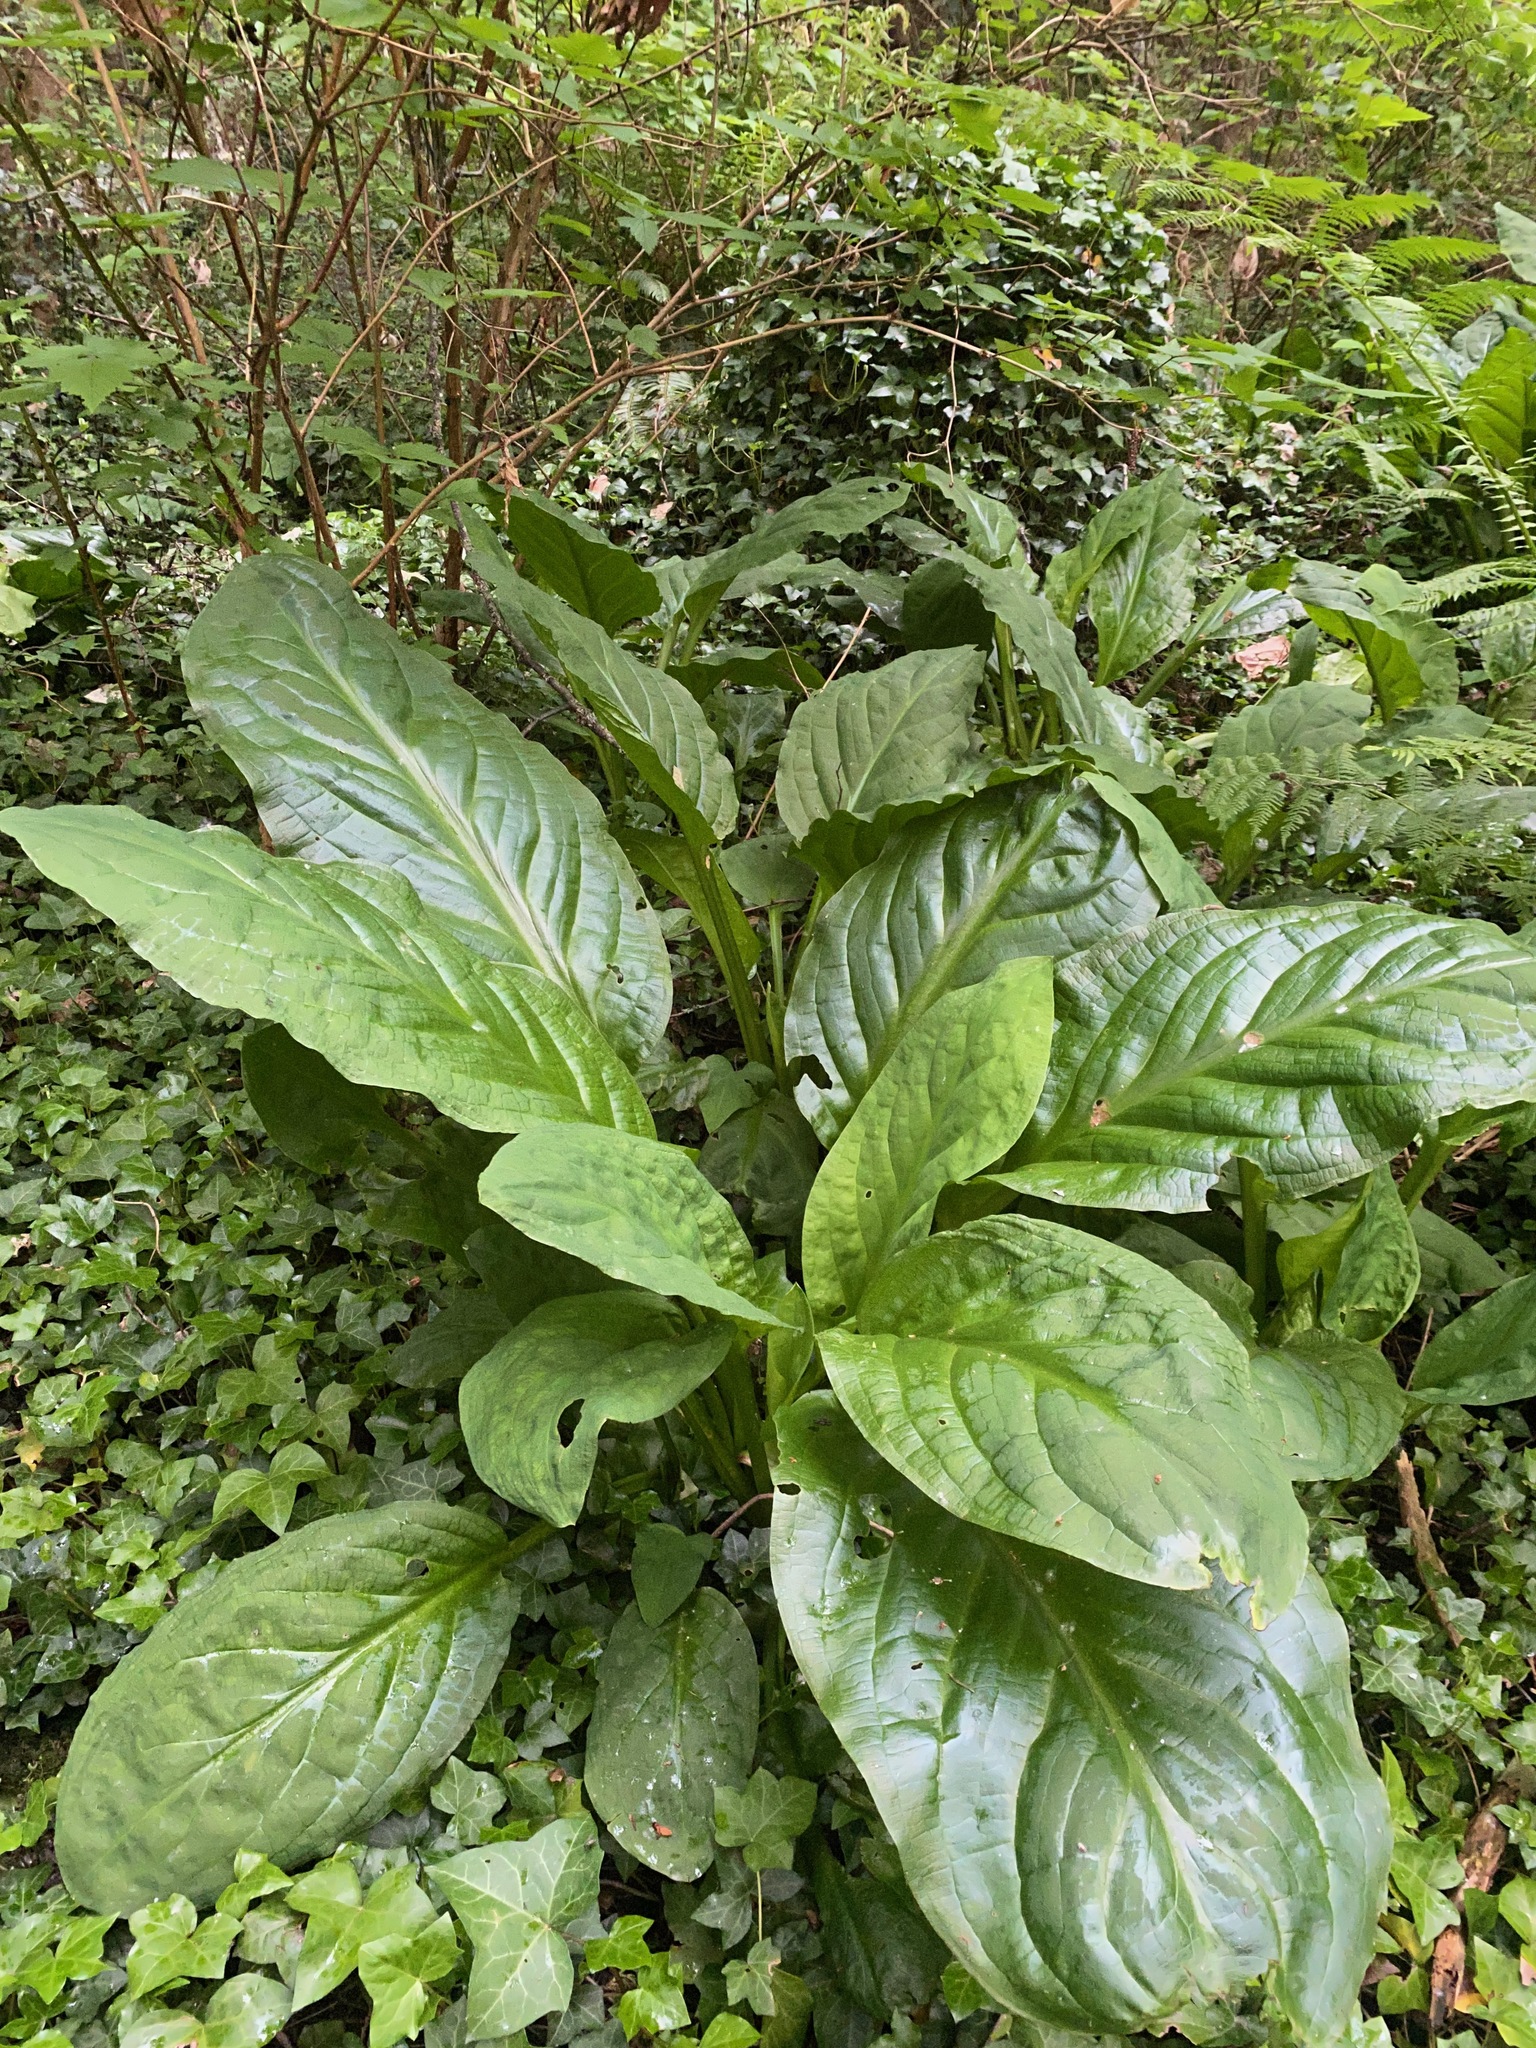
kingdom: Plantae
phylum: Tracheophyta
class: Liliopsida
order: Alismatales
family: Araceae
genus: Lysichiton
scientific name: Lysichiton americanus
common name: American skunk cabbage
